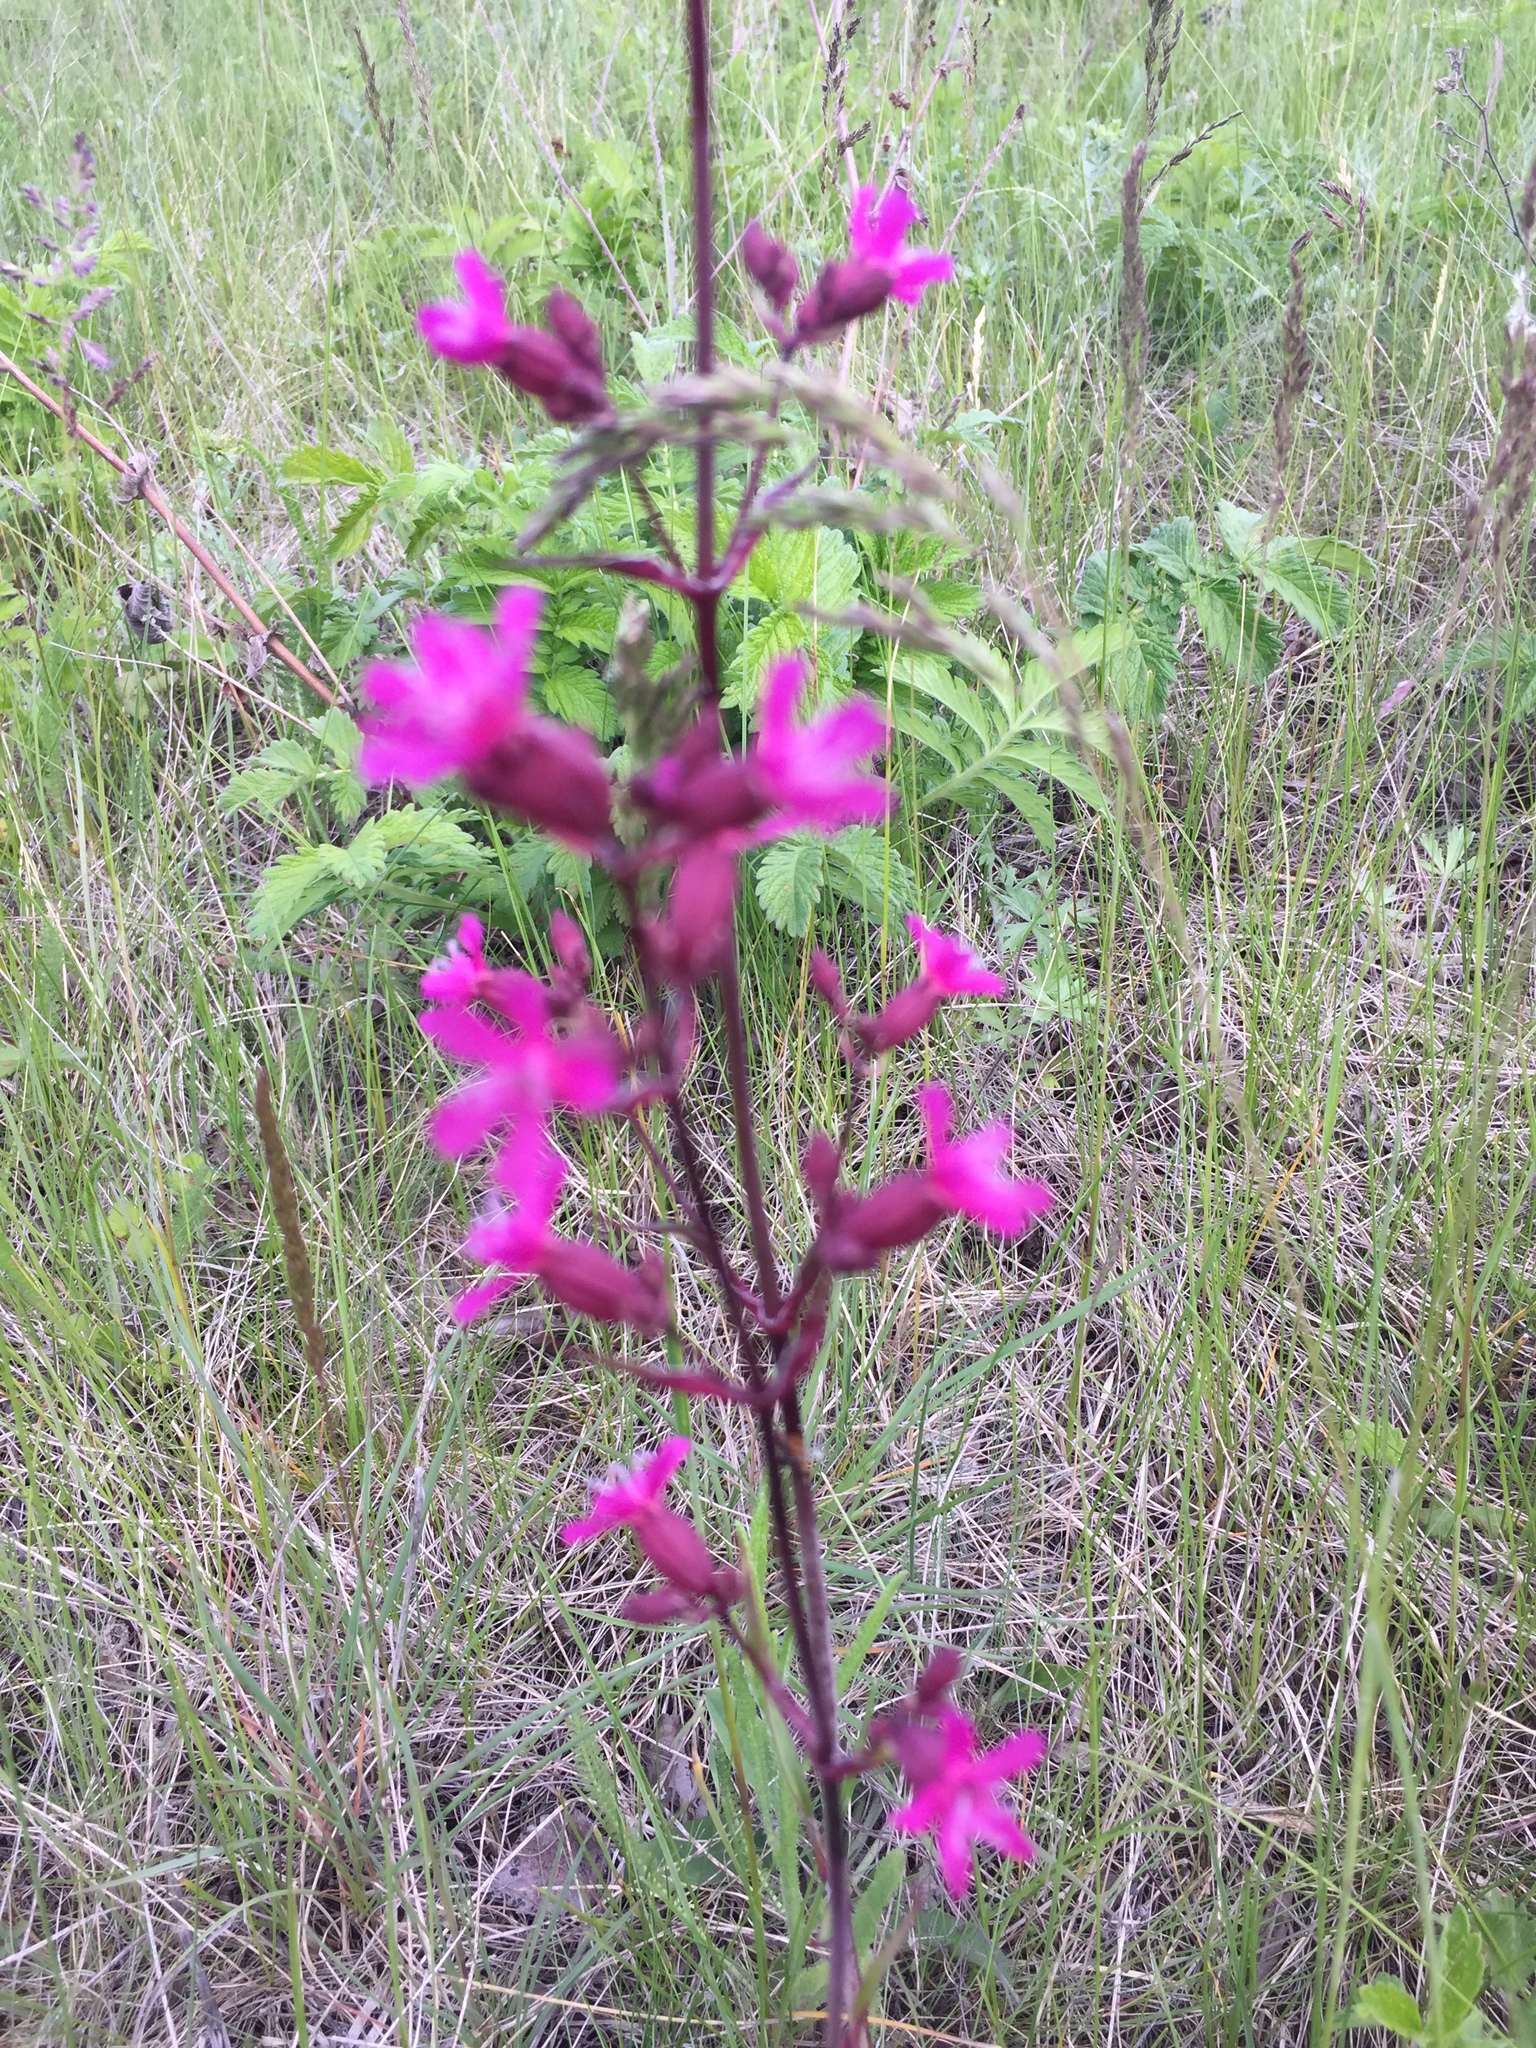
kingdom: Plantae
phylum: Tracheophyta
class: Magnoliopsida
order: Caryophyllales
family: Caryophyllaceae
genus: Viscaria
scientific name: Viscaria vulgaris
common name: Clammy campion
